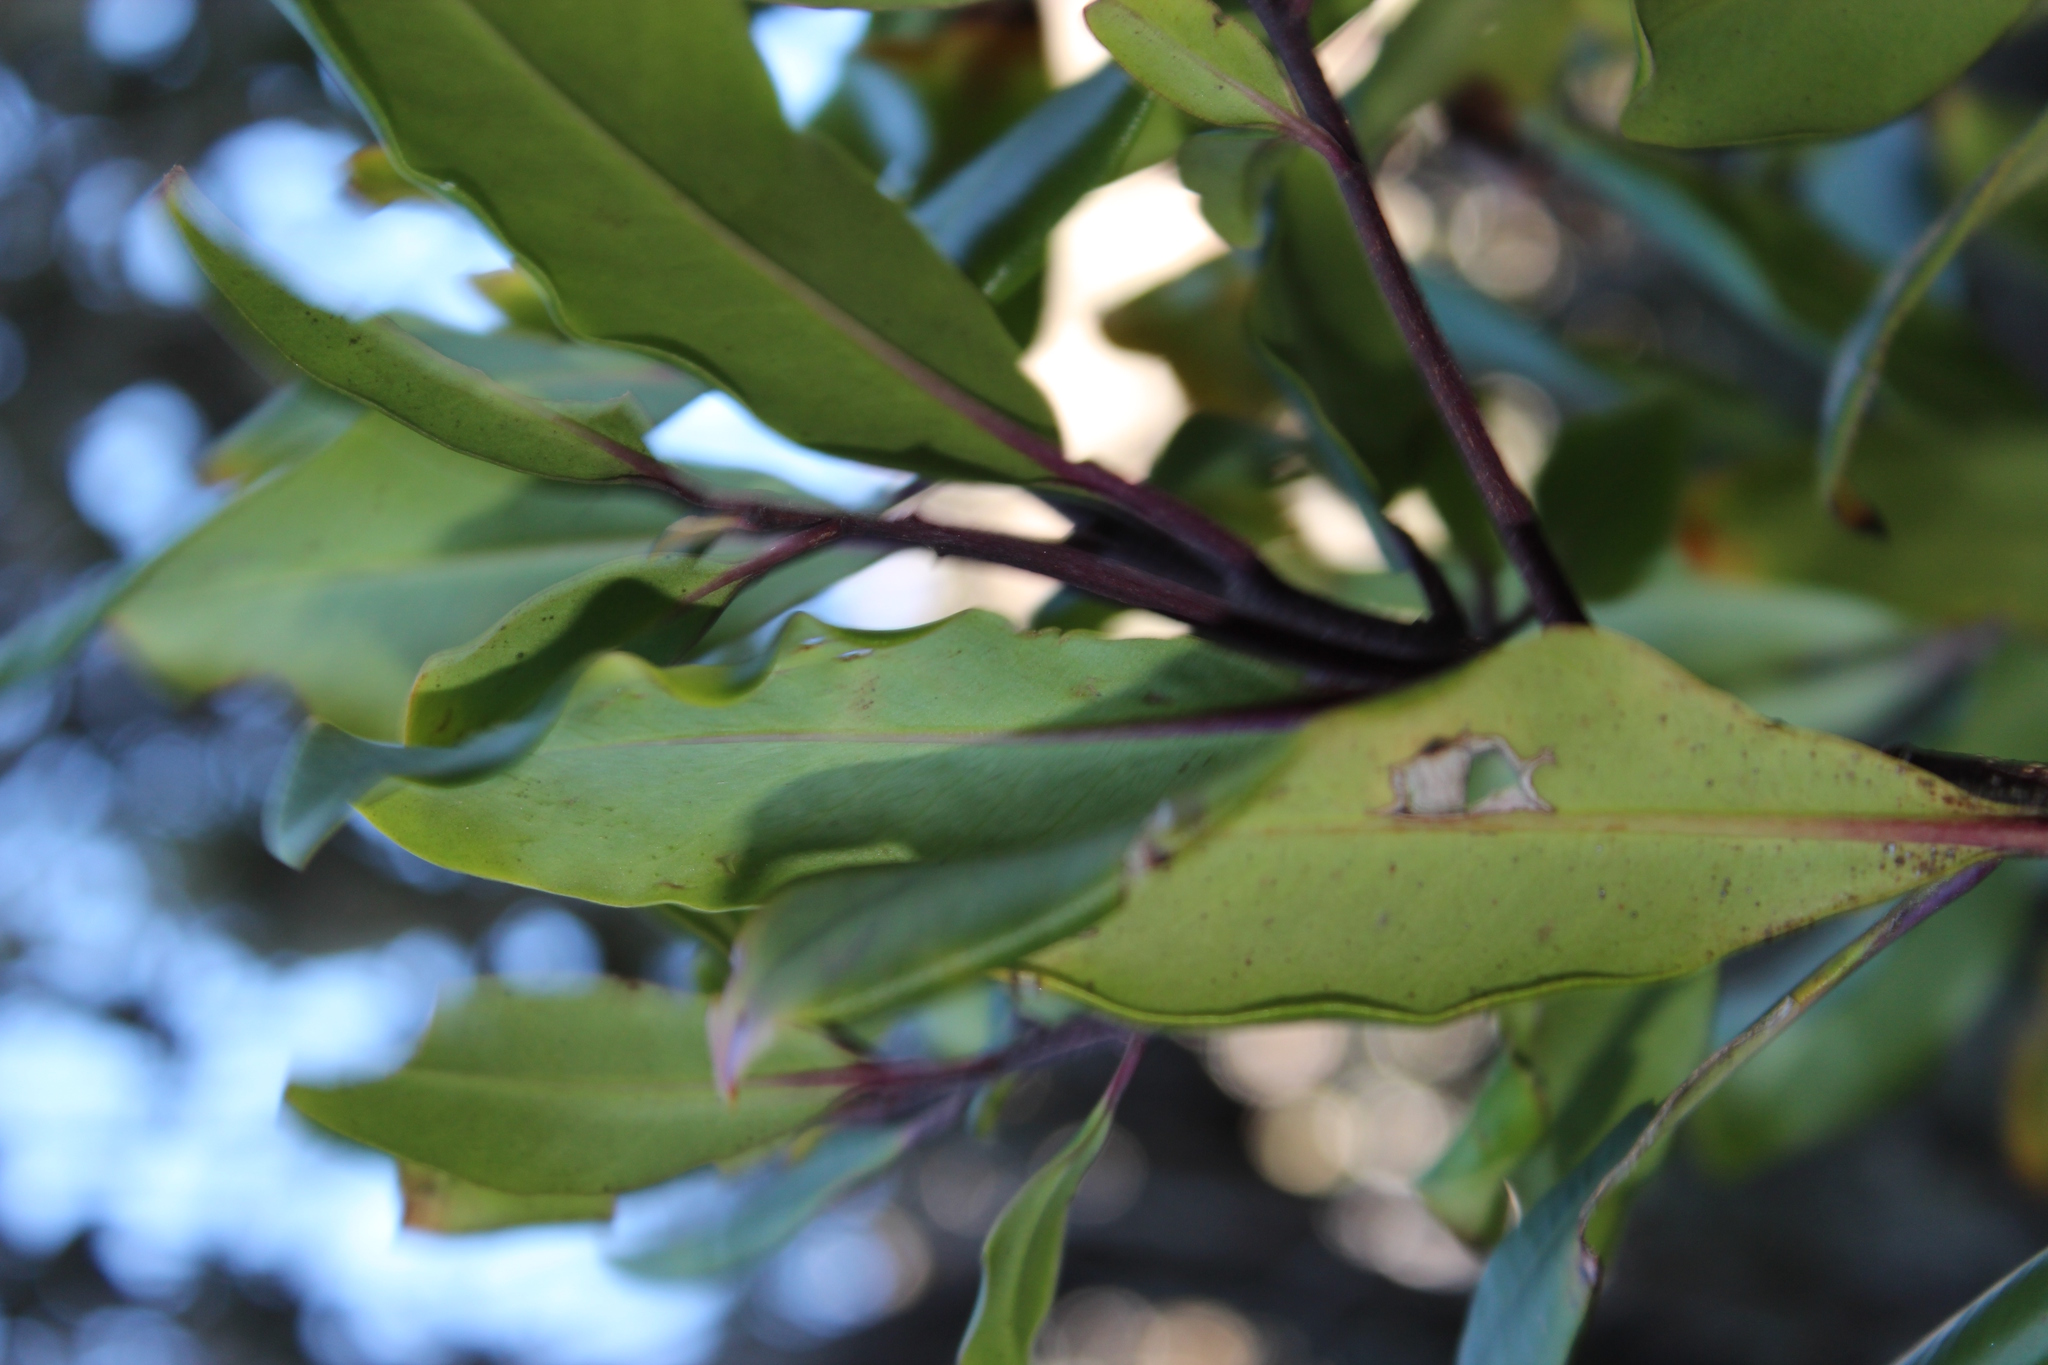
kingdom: Plantae
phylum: Tracheophyta
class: Magnoliopsida
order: Ericales
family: Primulaceae
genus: Myrsine
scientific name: Myrsine melanophloeos
